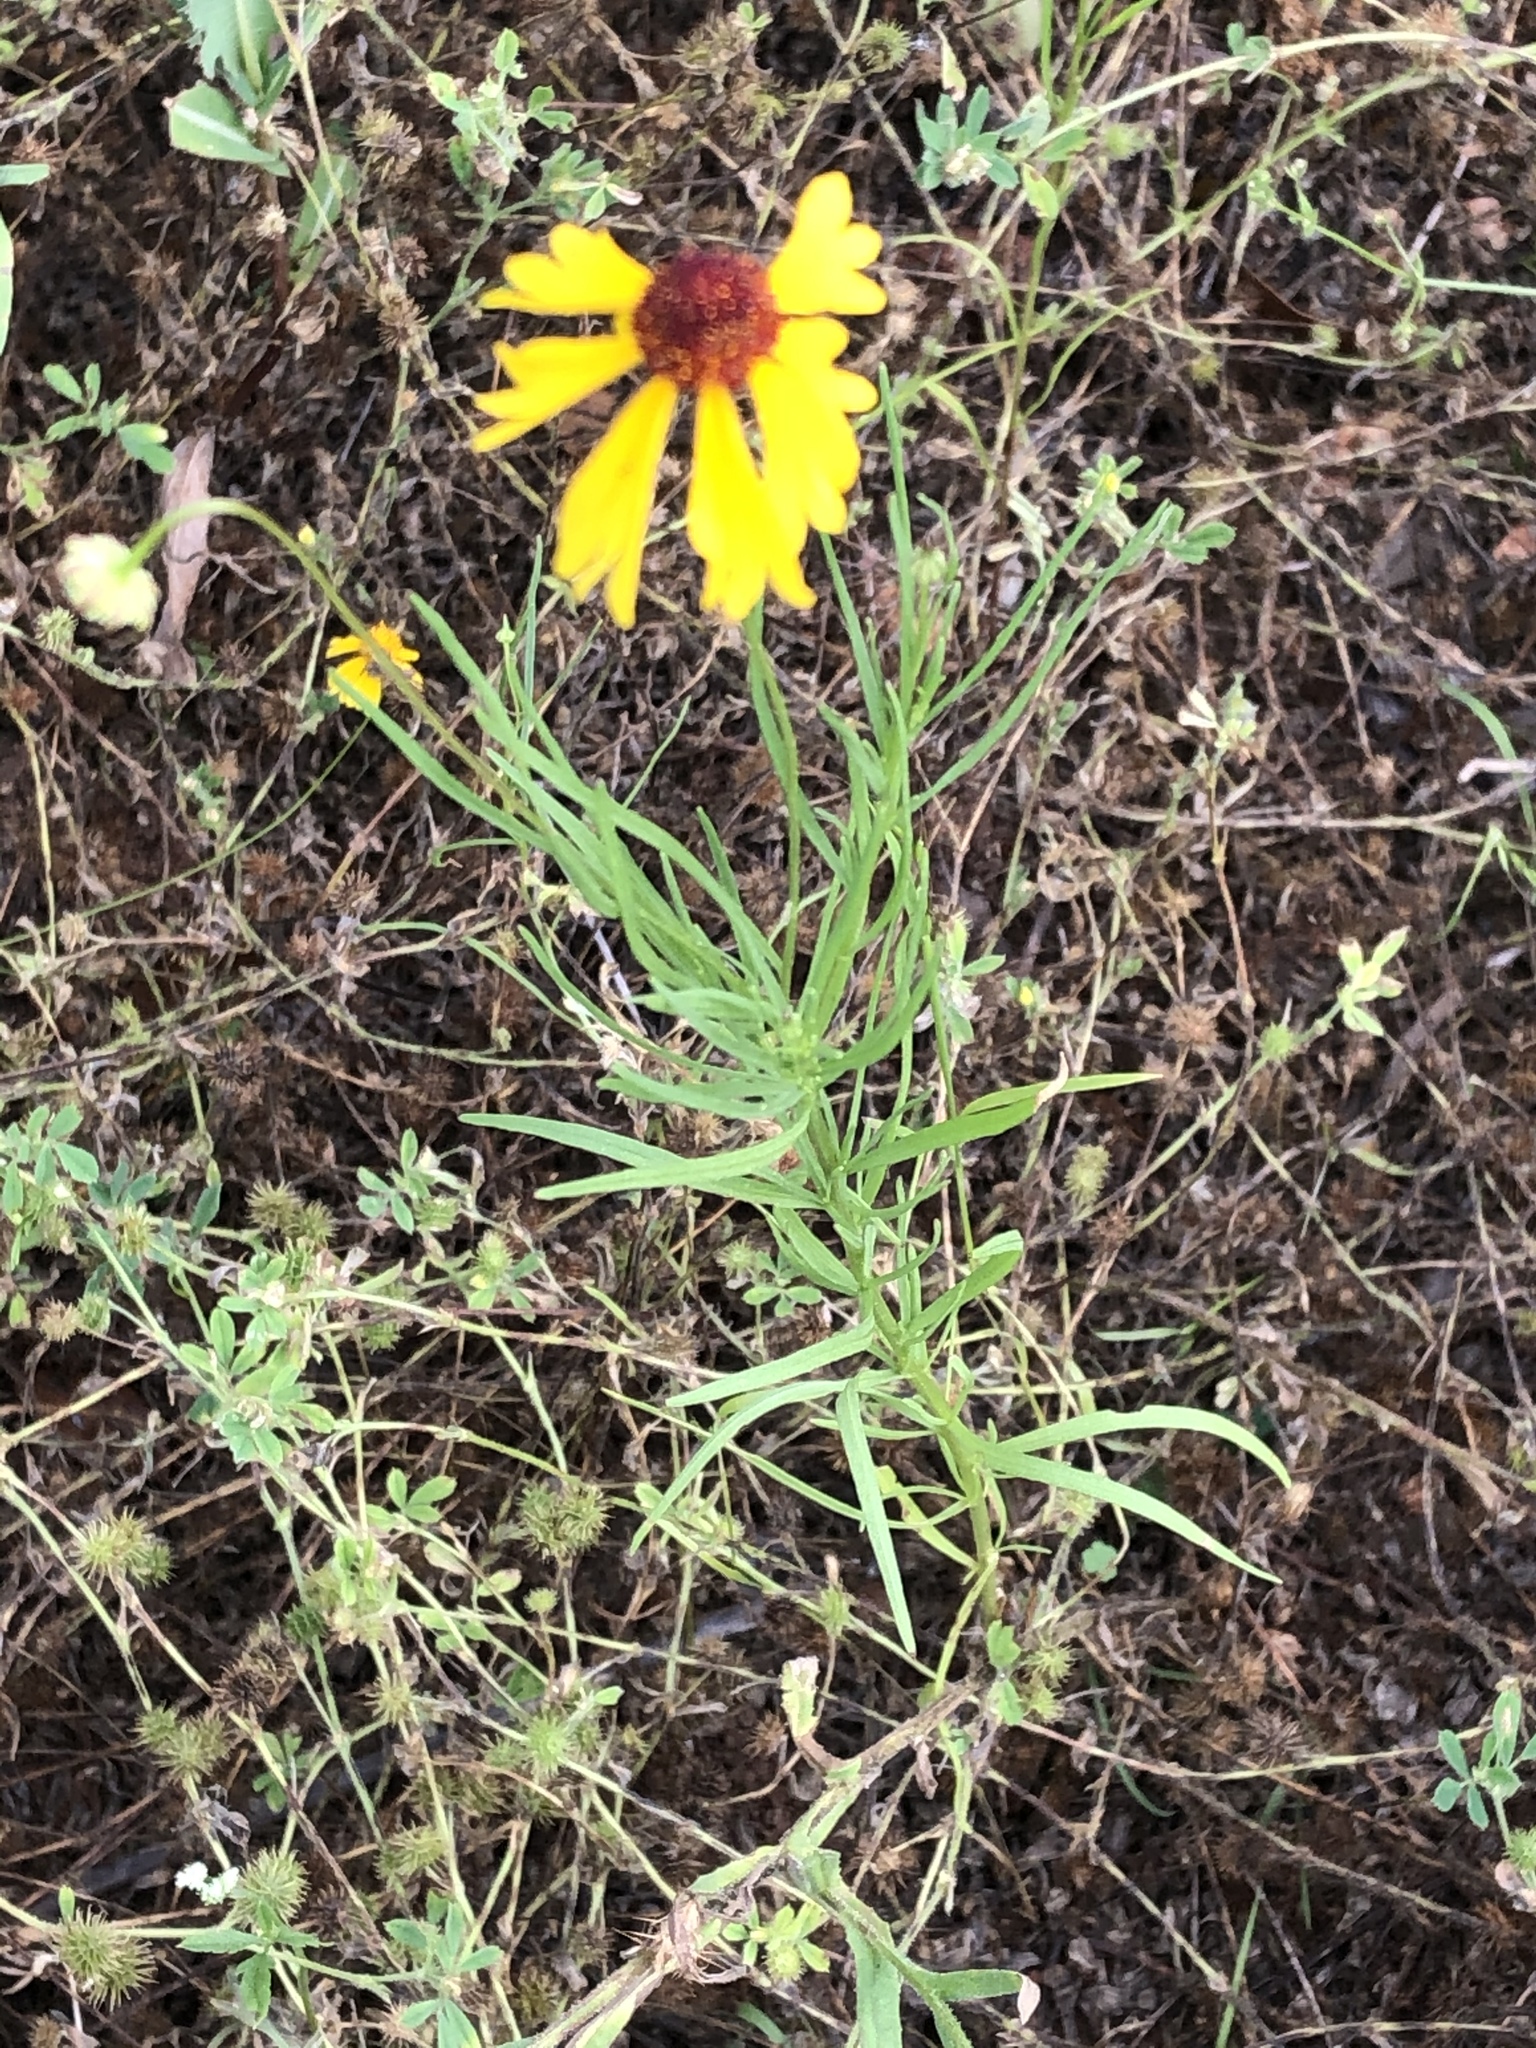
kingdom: Plantae
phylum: Tracheophyta
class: Magnoliopsida
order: Asterales
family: Asteraceae
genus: Helenium
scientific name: Helenium amarum
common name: Bitter sneezeweed
